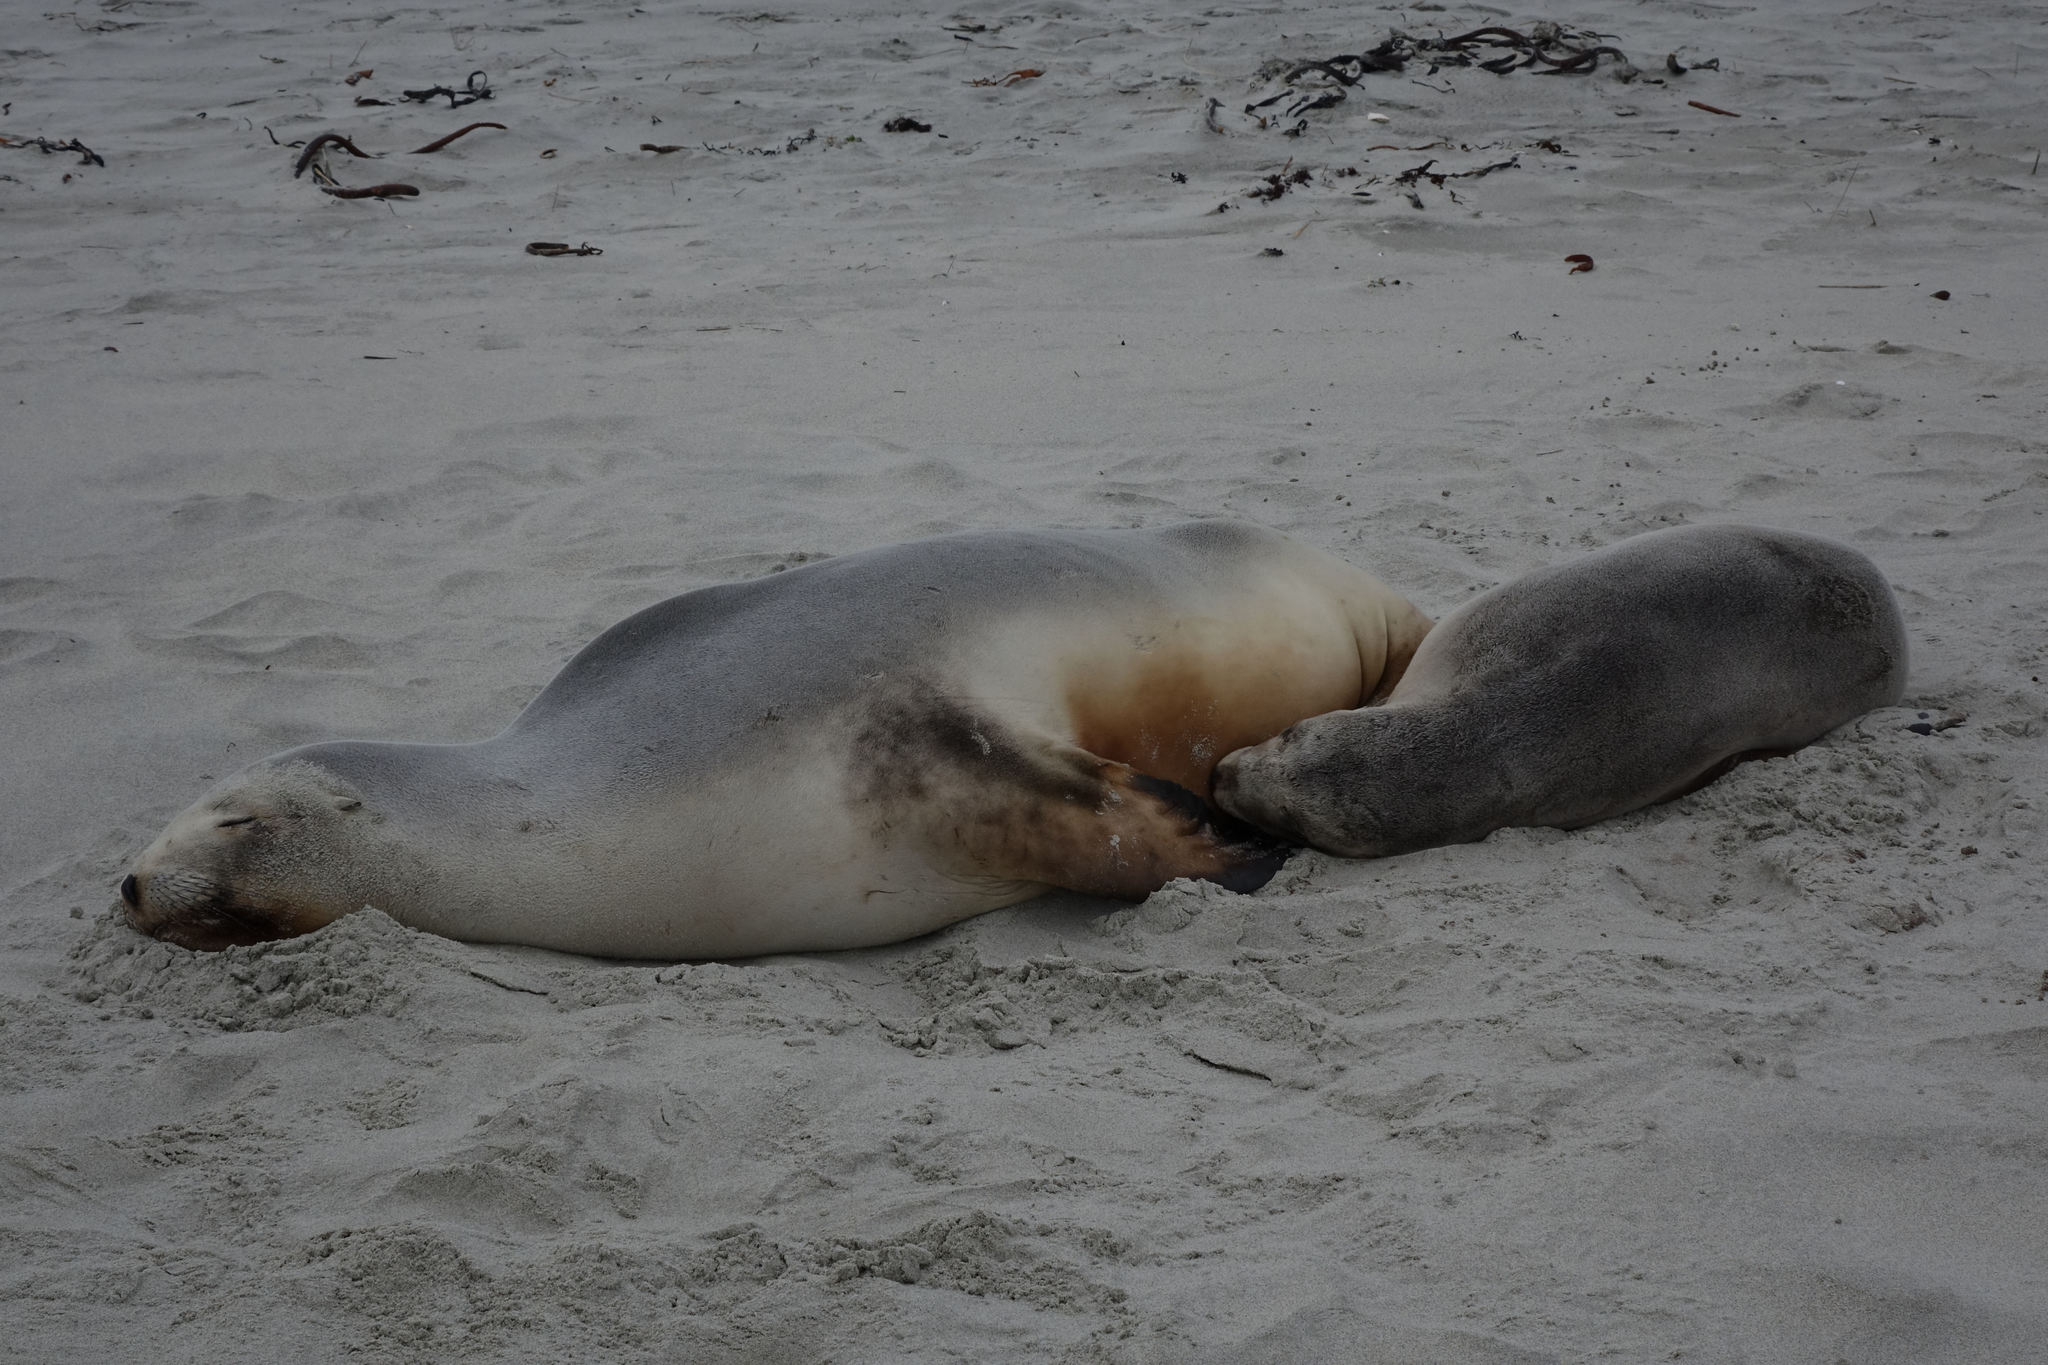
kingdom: Animalia
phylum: Chordata
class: Mammalia
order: Carnivora
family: Otariidae
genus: Phocarctos
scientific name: Phocarctos hookeri
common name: New zealand sea lion
